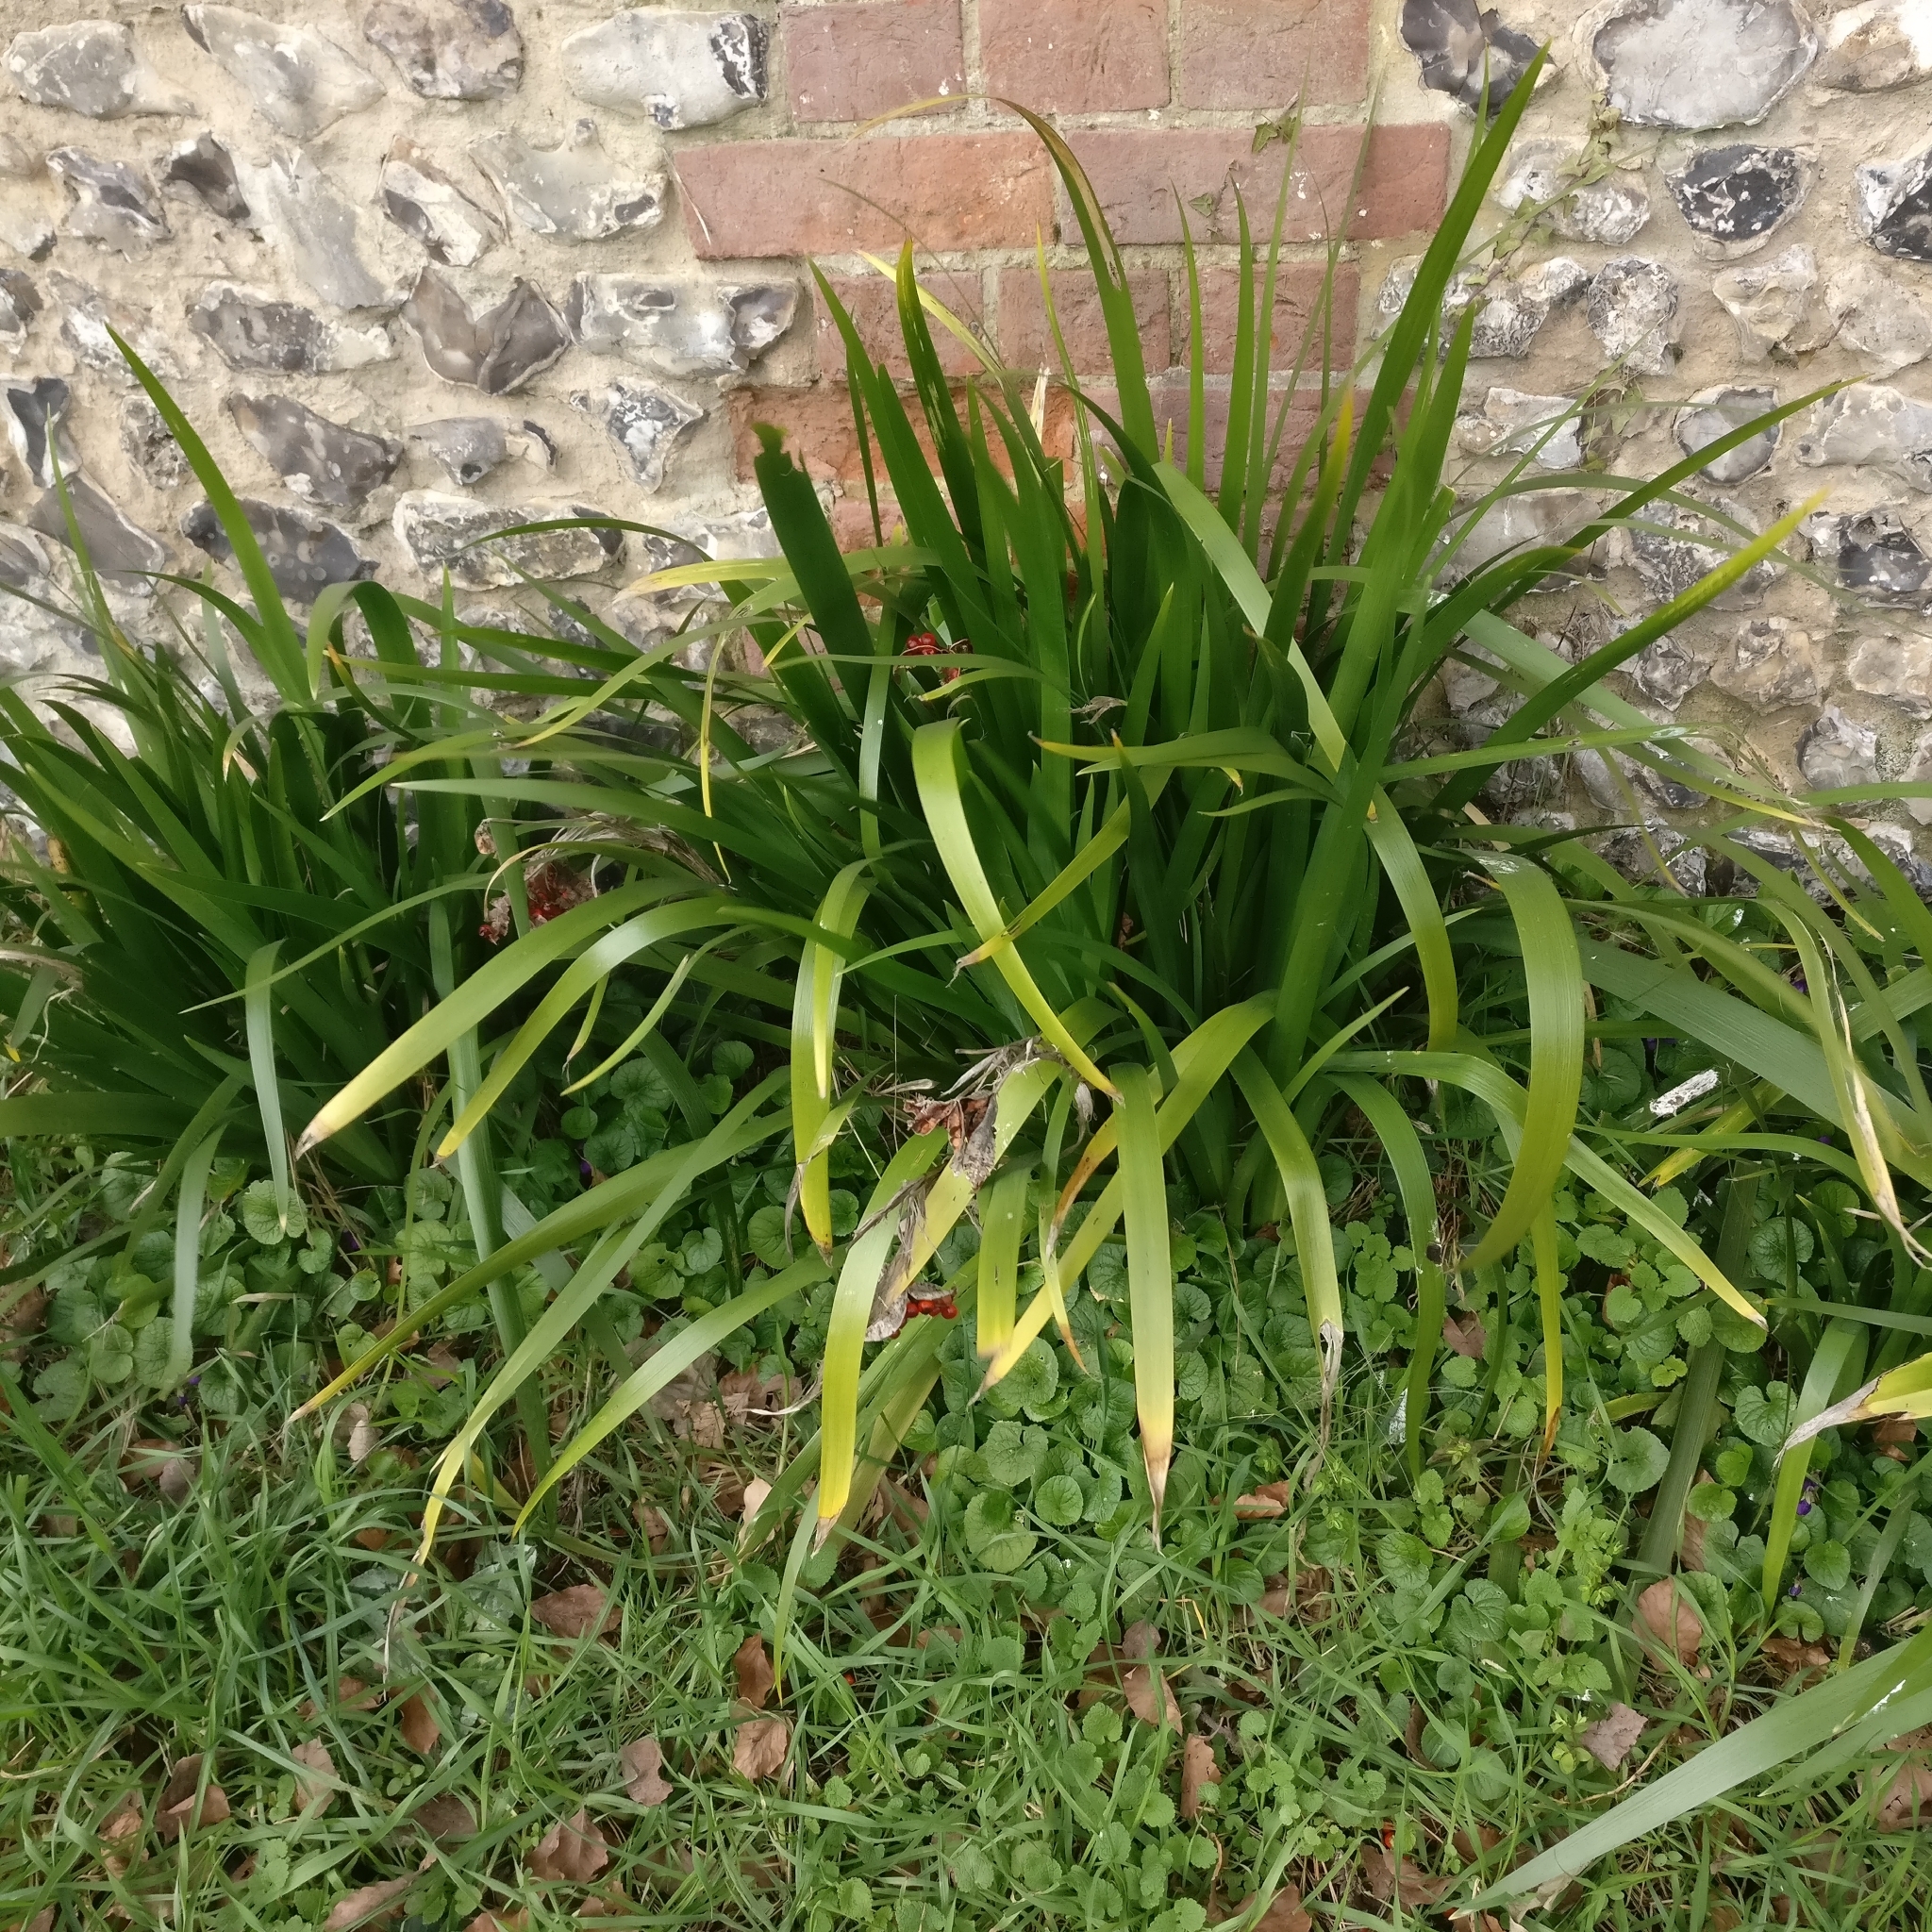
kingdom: Plantae
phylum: Tracheophyta
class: Liliopsida
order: Asparagales
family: Iridaceae
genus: Iris
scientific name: Iris foetidissima
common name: Stinking iris
